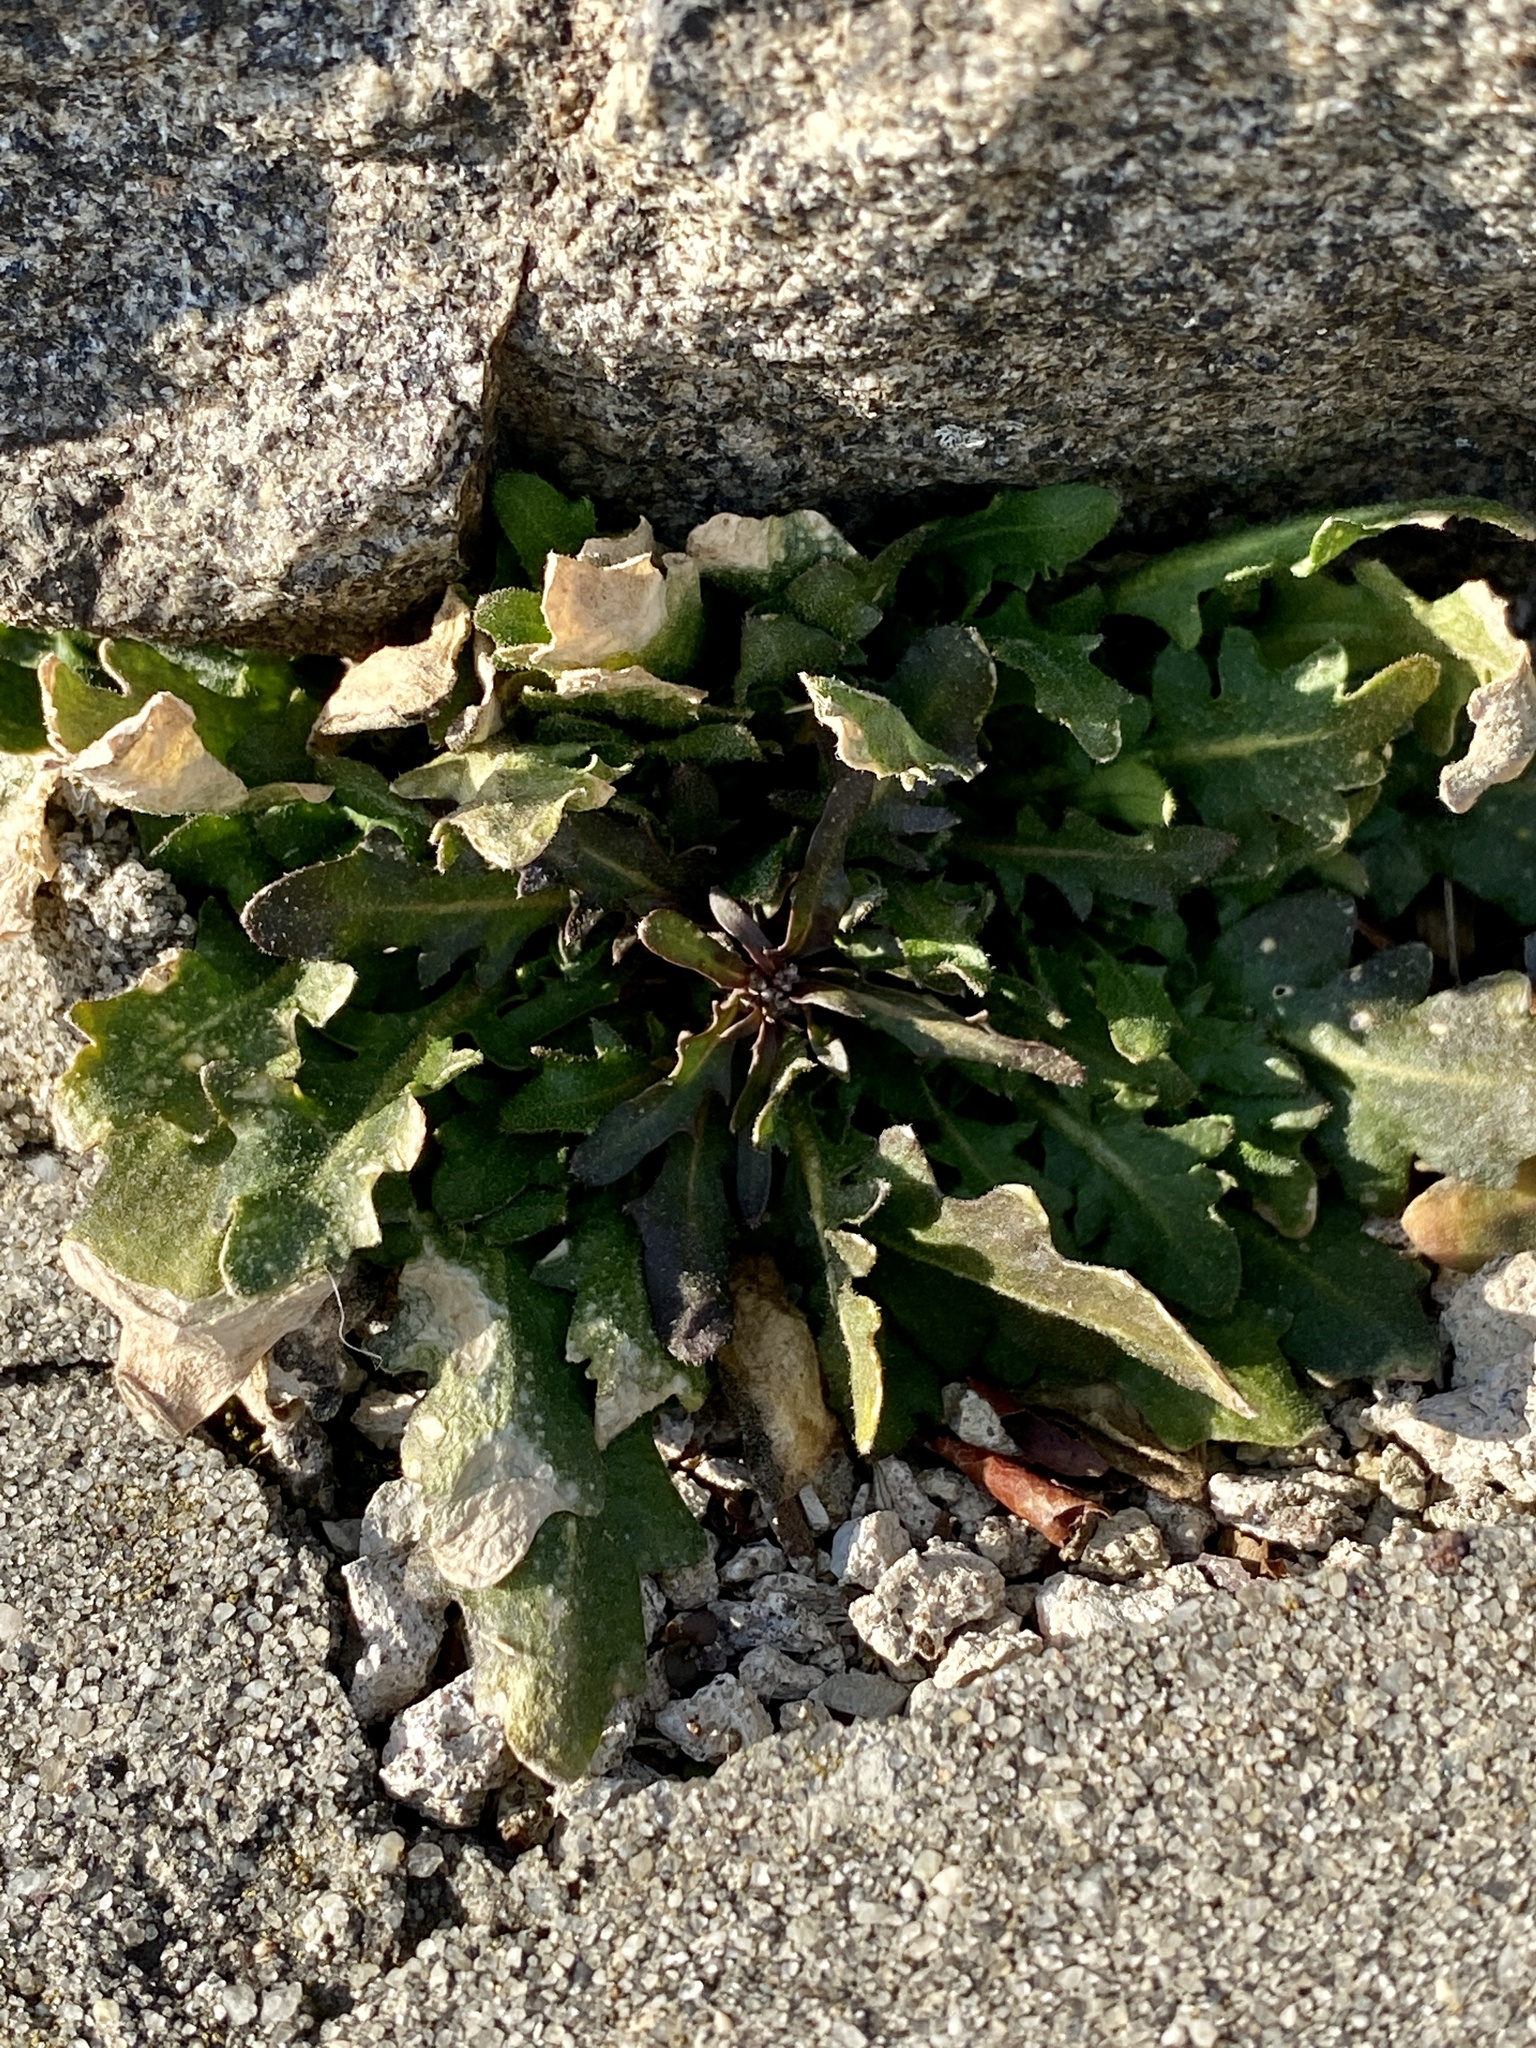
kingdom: Plantae
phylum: Tracheophyta
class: Magnoliopsida
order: Brassicales
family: Brassicaceae
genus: Arabidopsis
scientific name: Arabidopsis lyrata
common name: Lyrate rockcress
